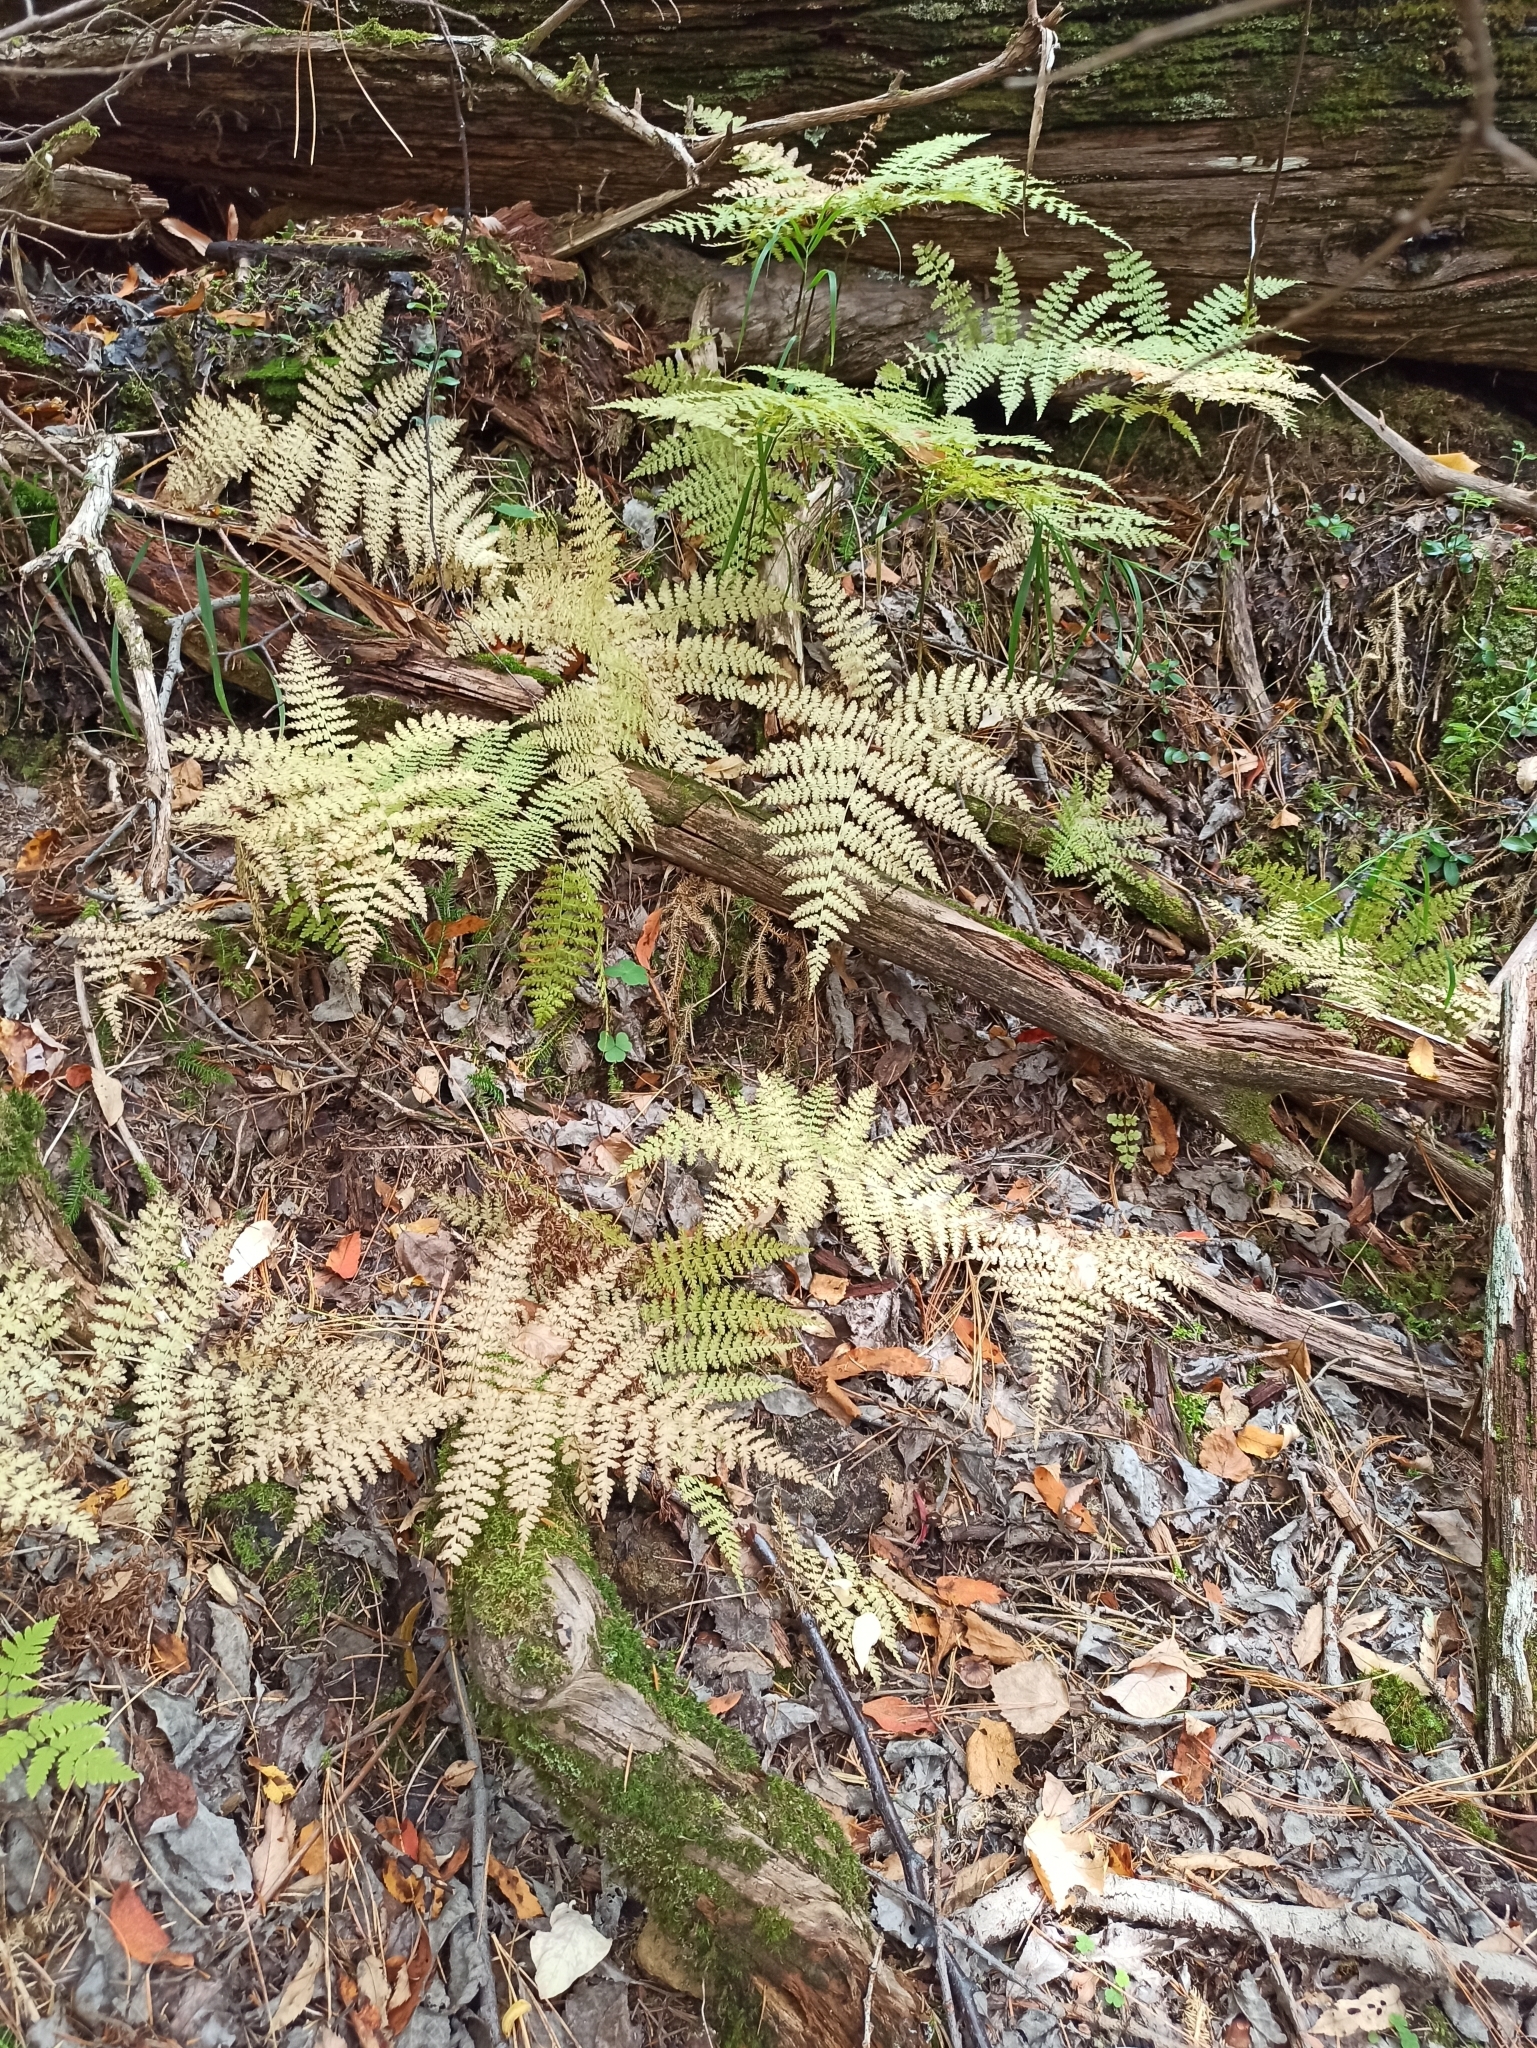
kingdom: Plantae
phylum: Tracheophyta
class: Polypodiopsida
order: Polypodiales
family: Athyriaceae
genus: Diplazium
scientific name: Diplazium sibiricum
